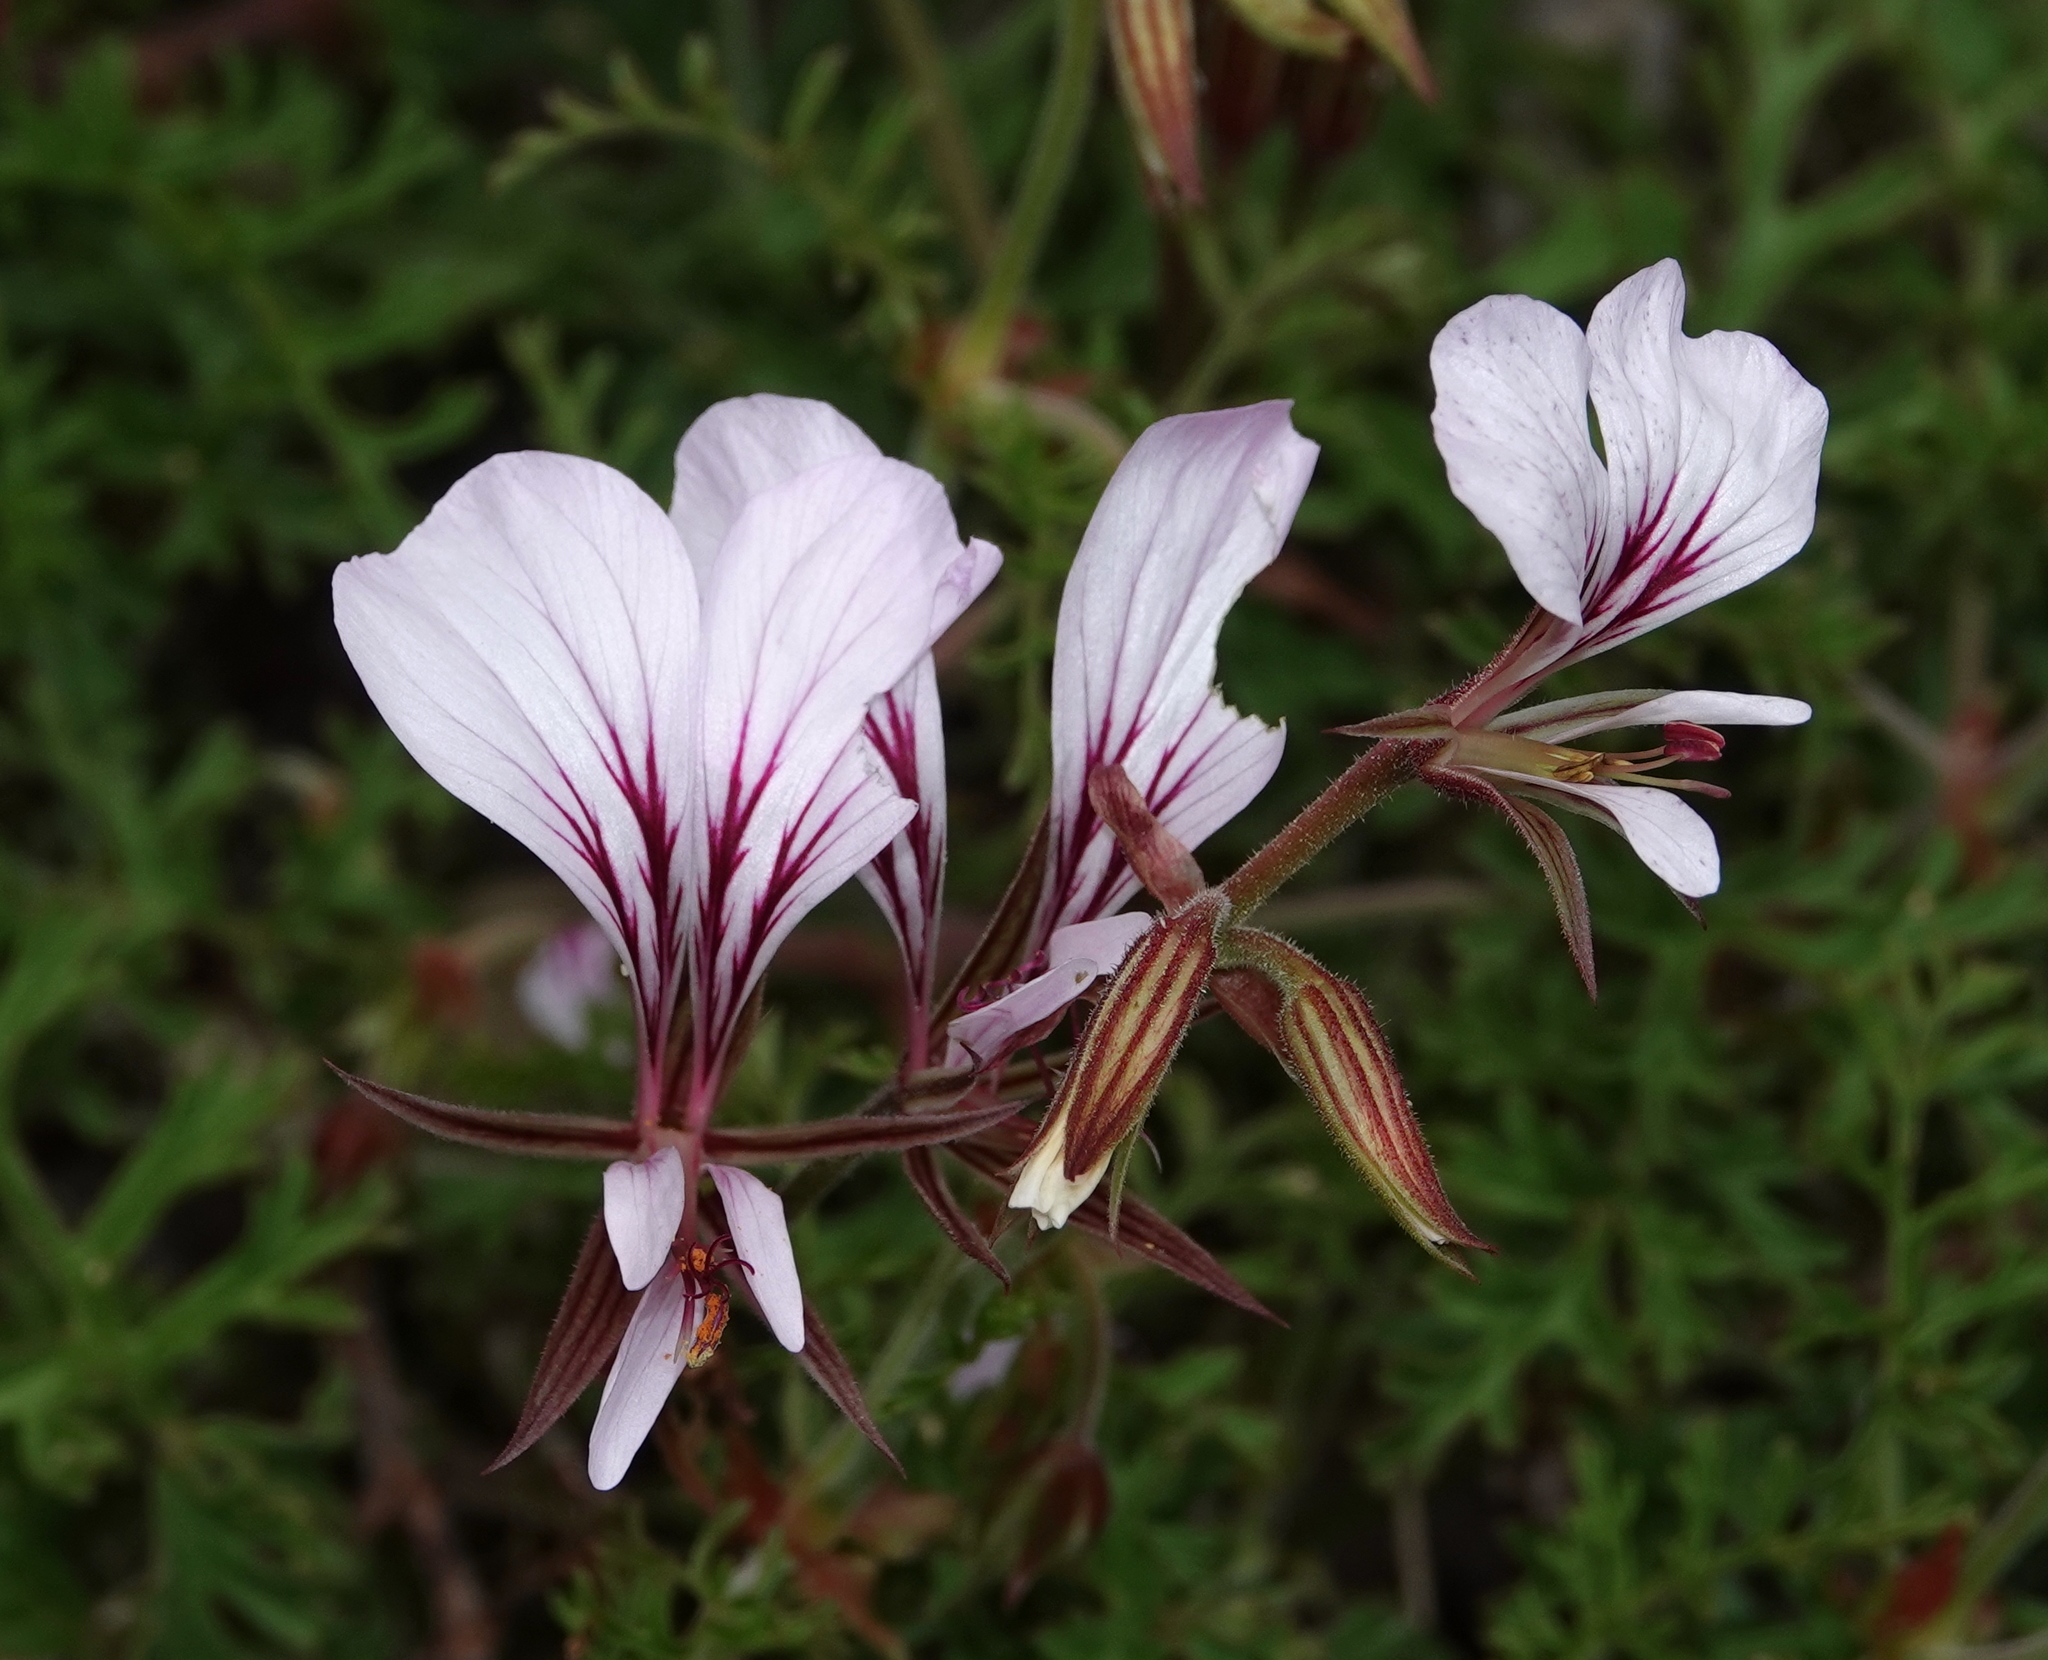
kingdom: Plantae
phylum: Tracheophyta
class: Magnoliopsida
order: Geraniales
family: Geraniaceae
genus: Pelargonium
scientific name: Pelargonium longicaule
